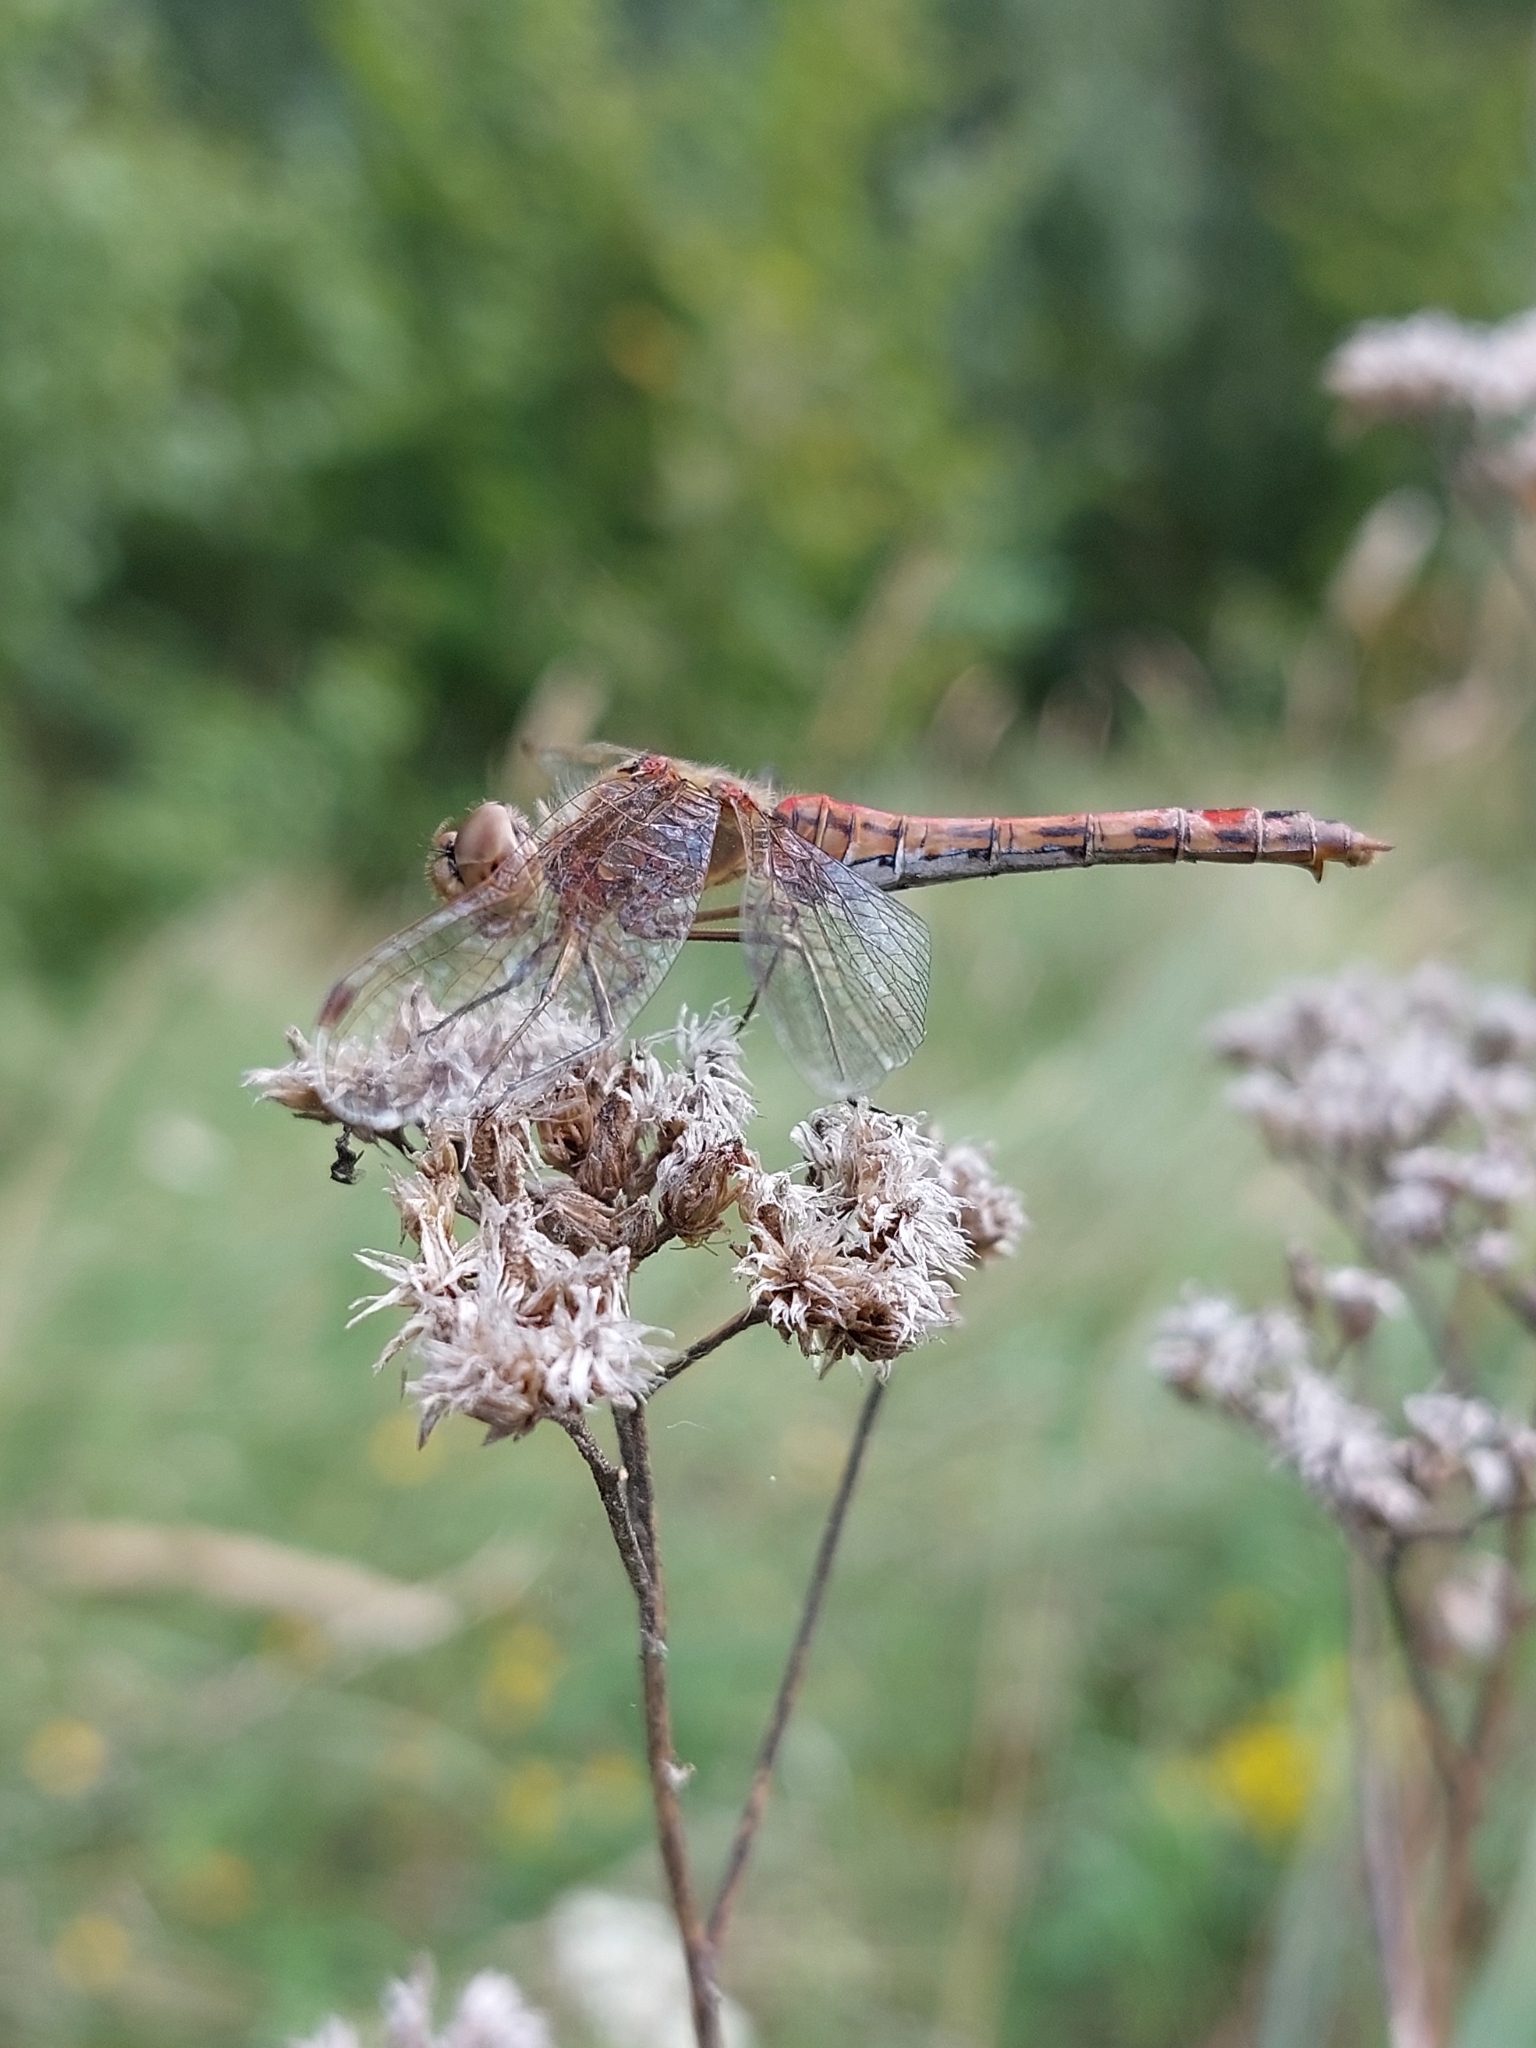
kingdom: Animalia
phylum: Arthropoda
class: Insecta
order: Odonata
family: Libellulidae
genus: Sympetrum
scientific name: Sympetrum vulgatum
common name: Vagrant darter
